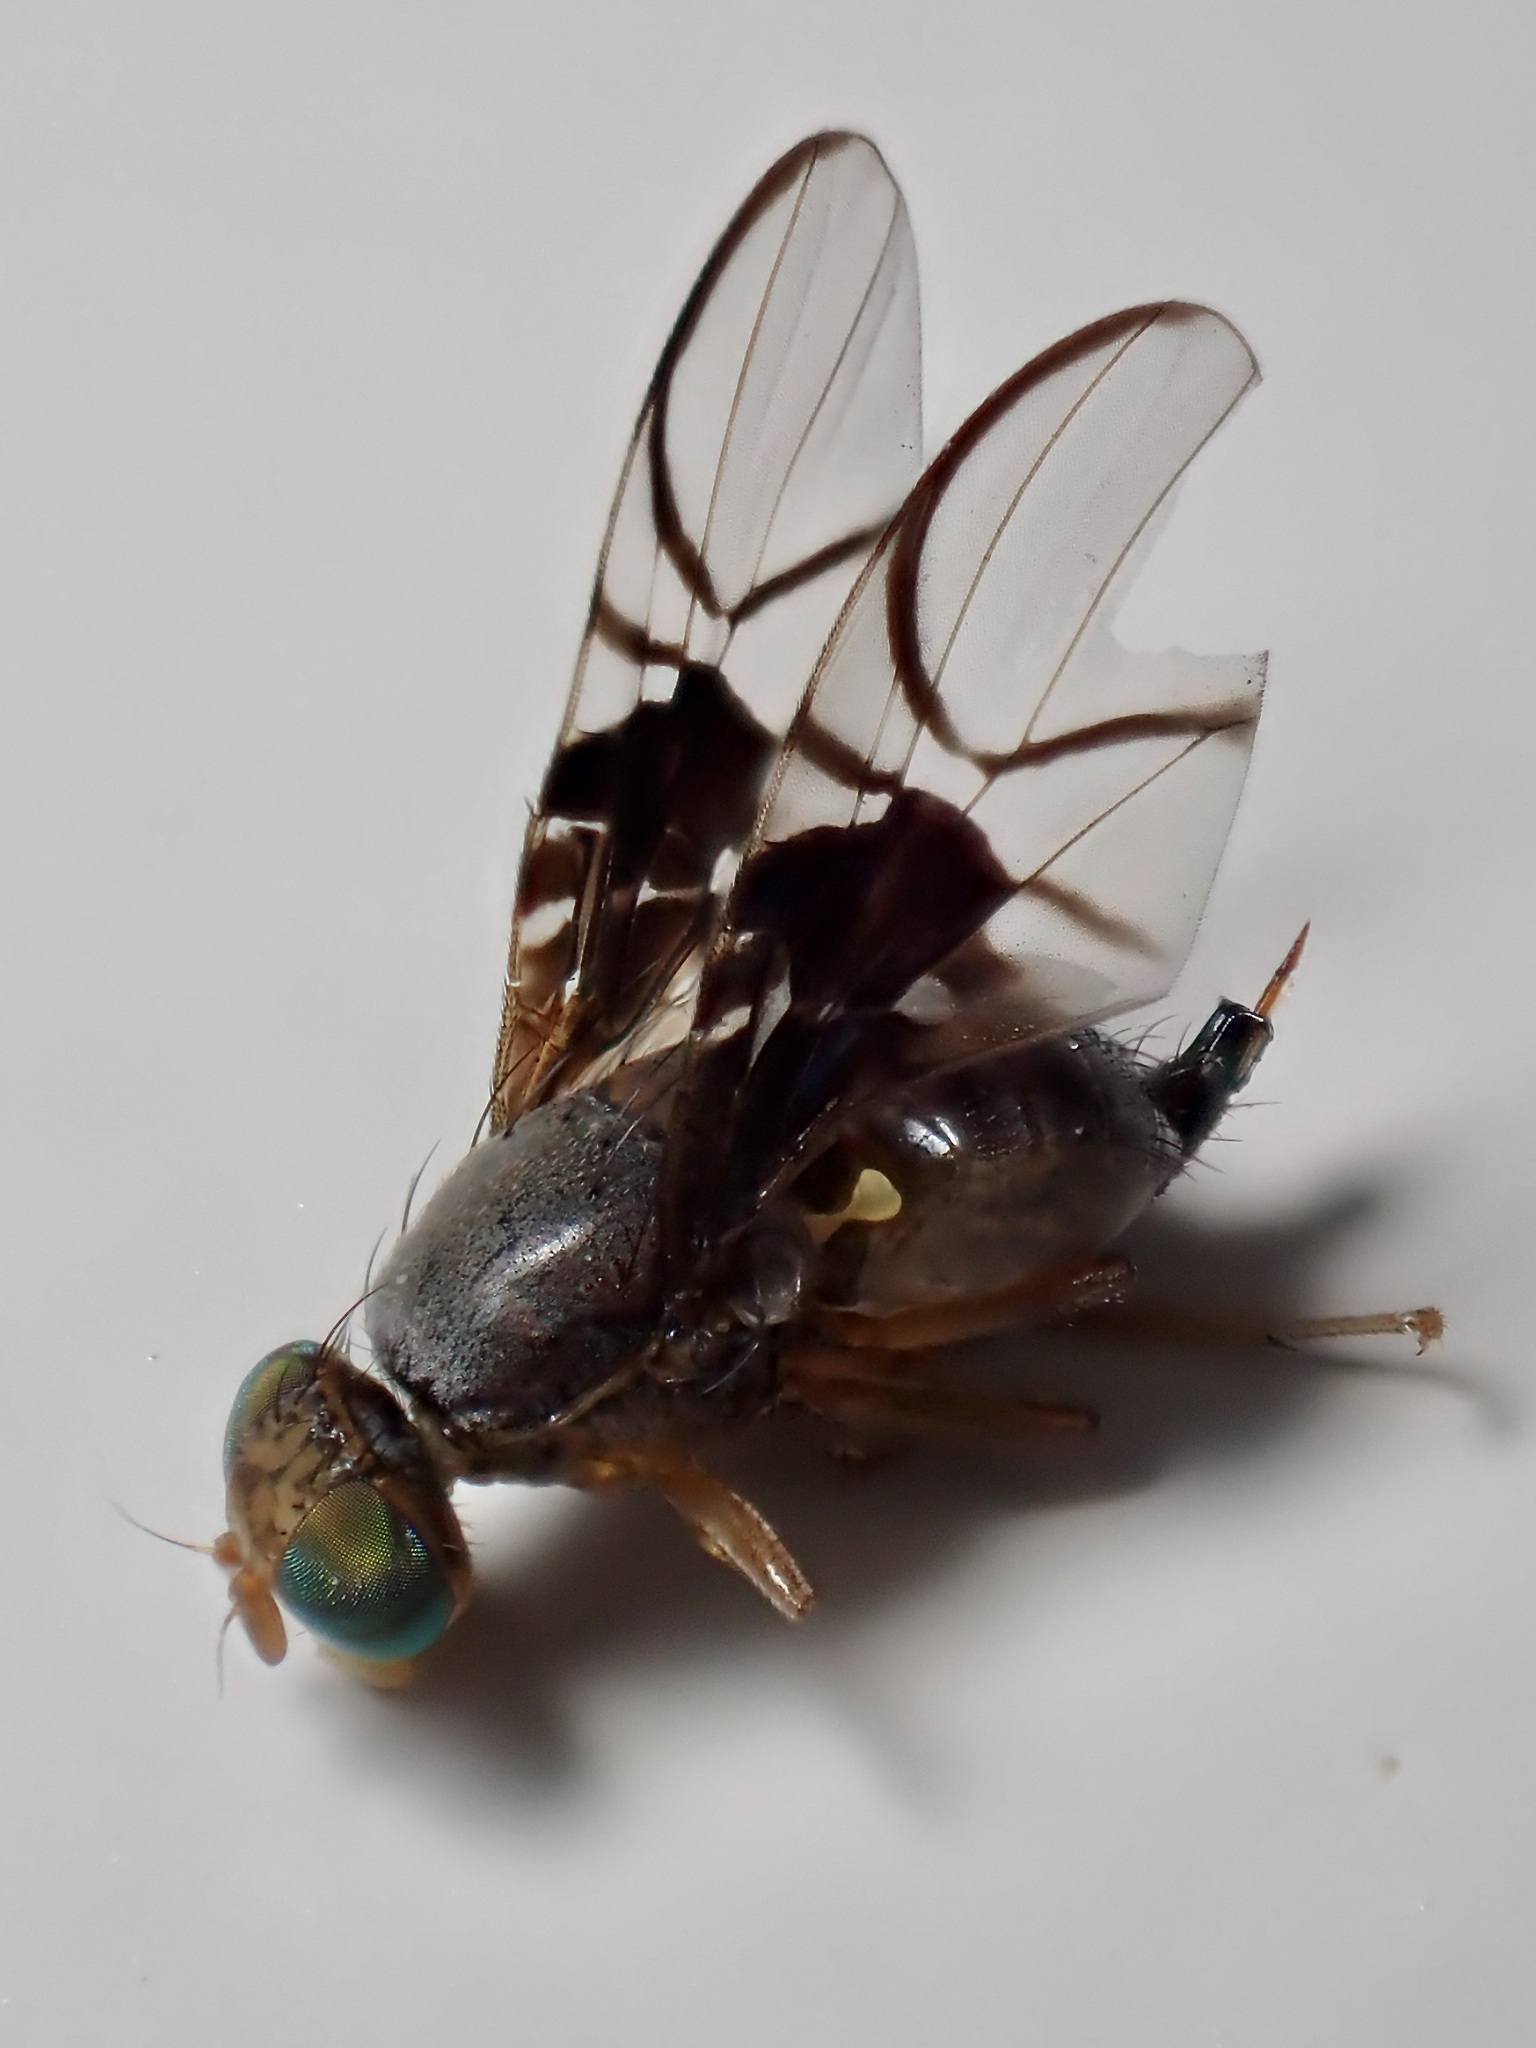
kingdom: Animalia
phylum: Arthropoda
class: Insecta
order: Diptera
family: Tephritidae
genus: Anomoia
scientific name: Anomoia purmunda
